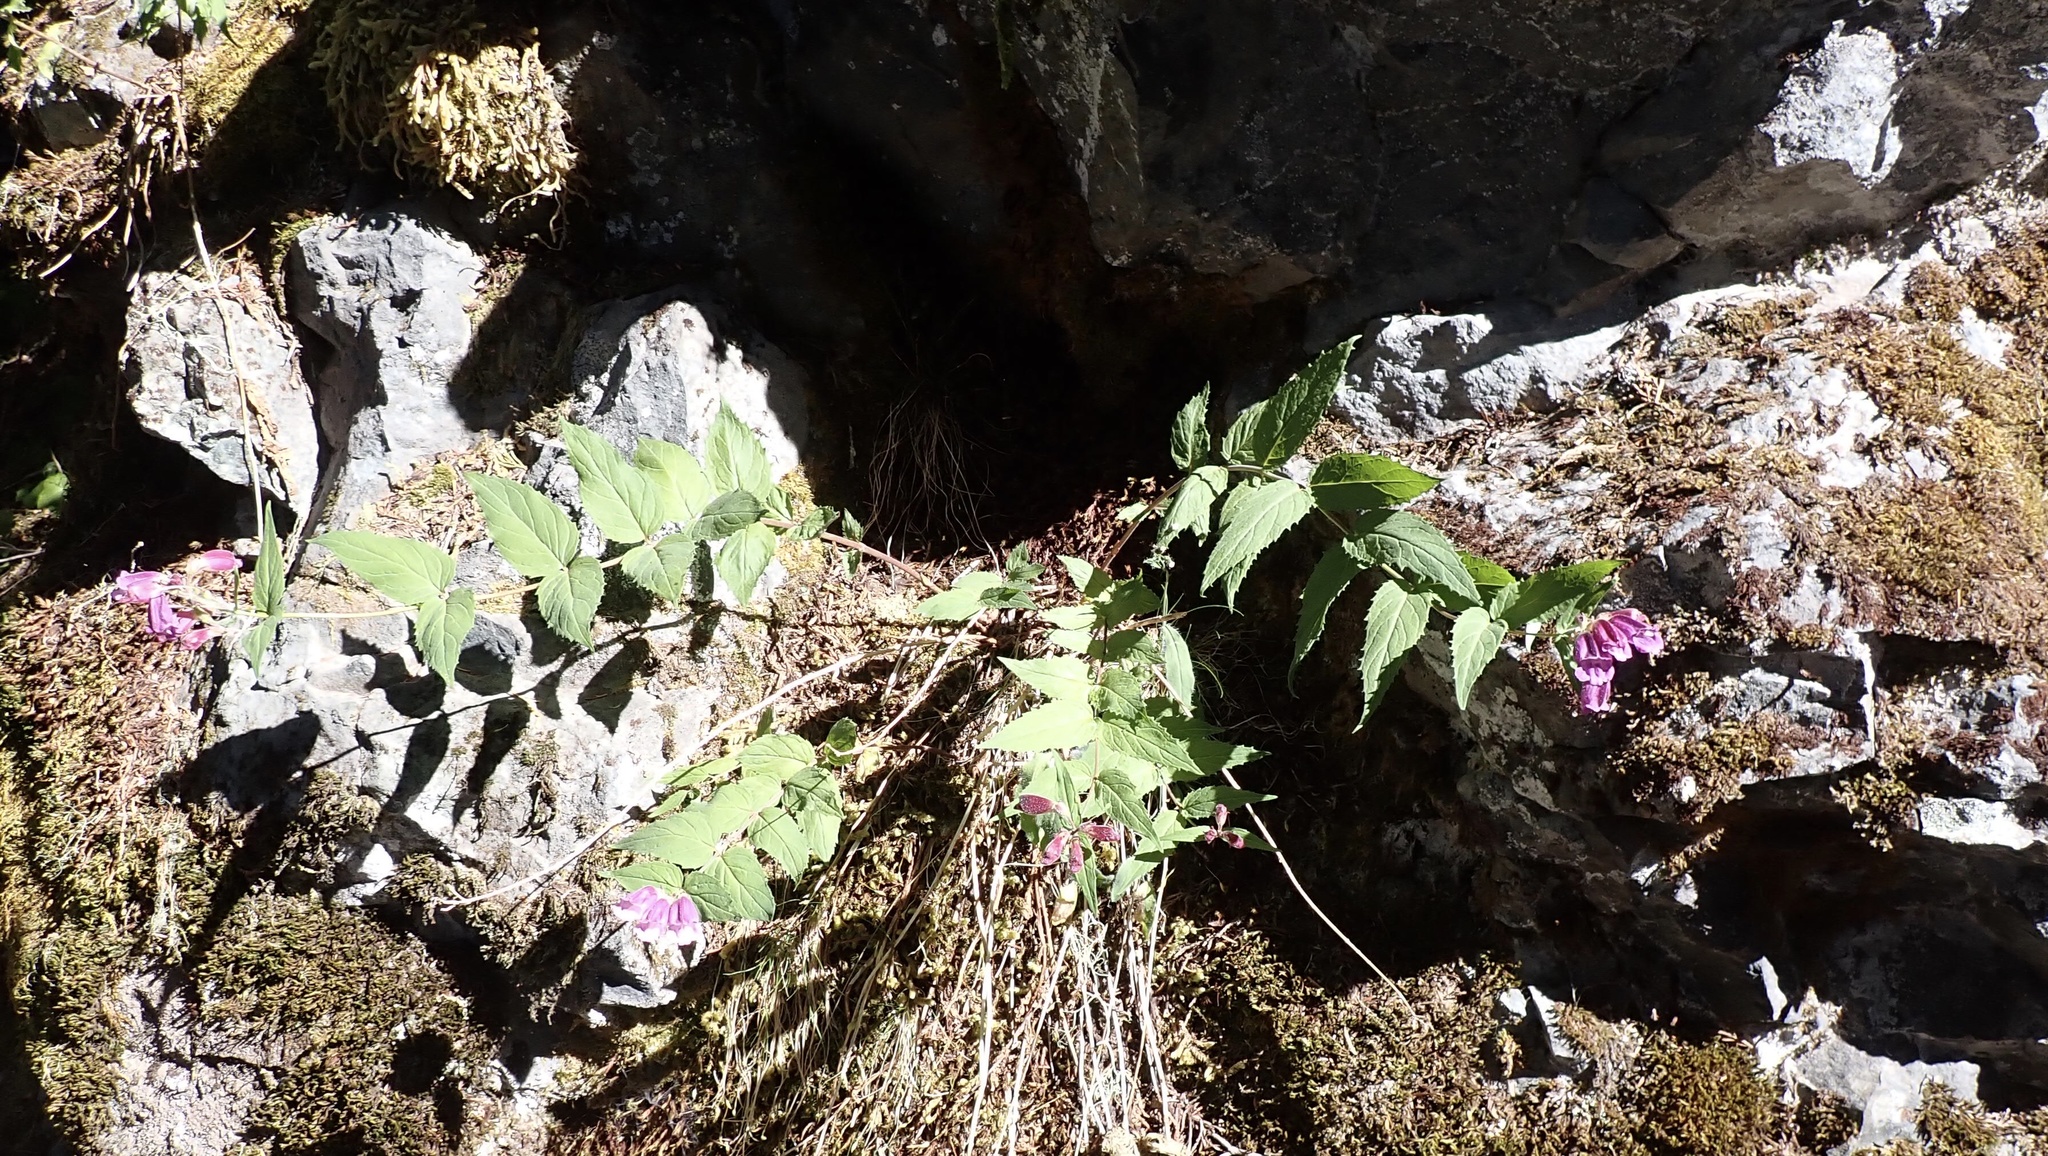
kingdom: Plantae
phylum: Tracheophyta
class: Magnoliopsida
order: Lamiales
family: Plantaginaceae
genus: Nothochelone
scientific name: Nothochelone nemorosa
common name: Woodland beardtongue
